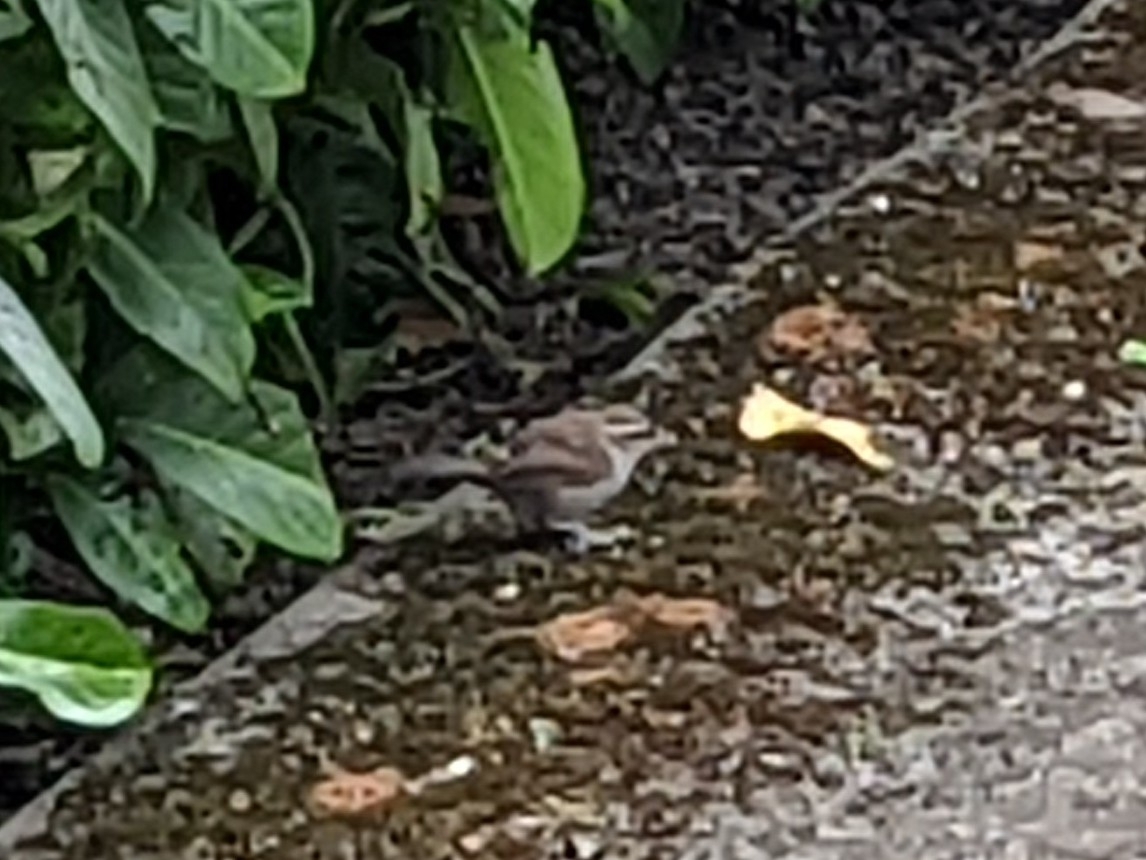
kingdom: Animalia
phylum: Chordata
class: Aves
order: Passeriformes
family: Troglodytidae
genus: Thryomanes
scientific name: Thryomanes bewickii
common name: Bewick's wren
